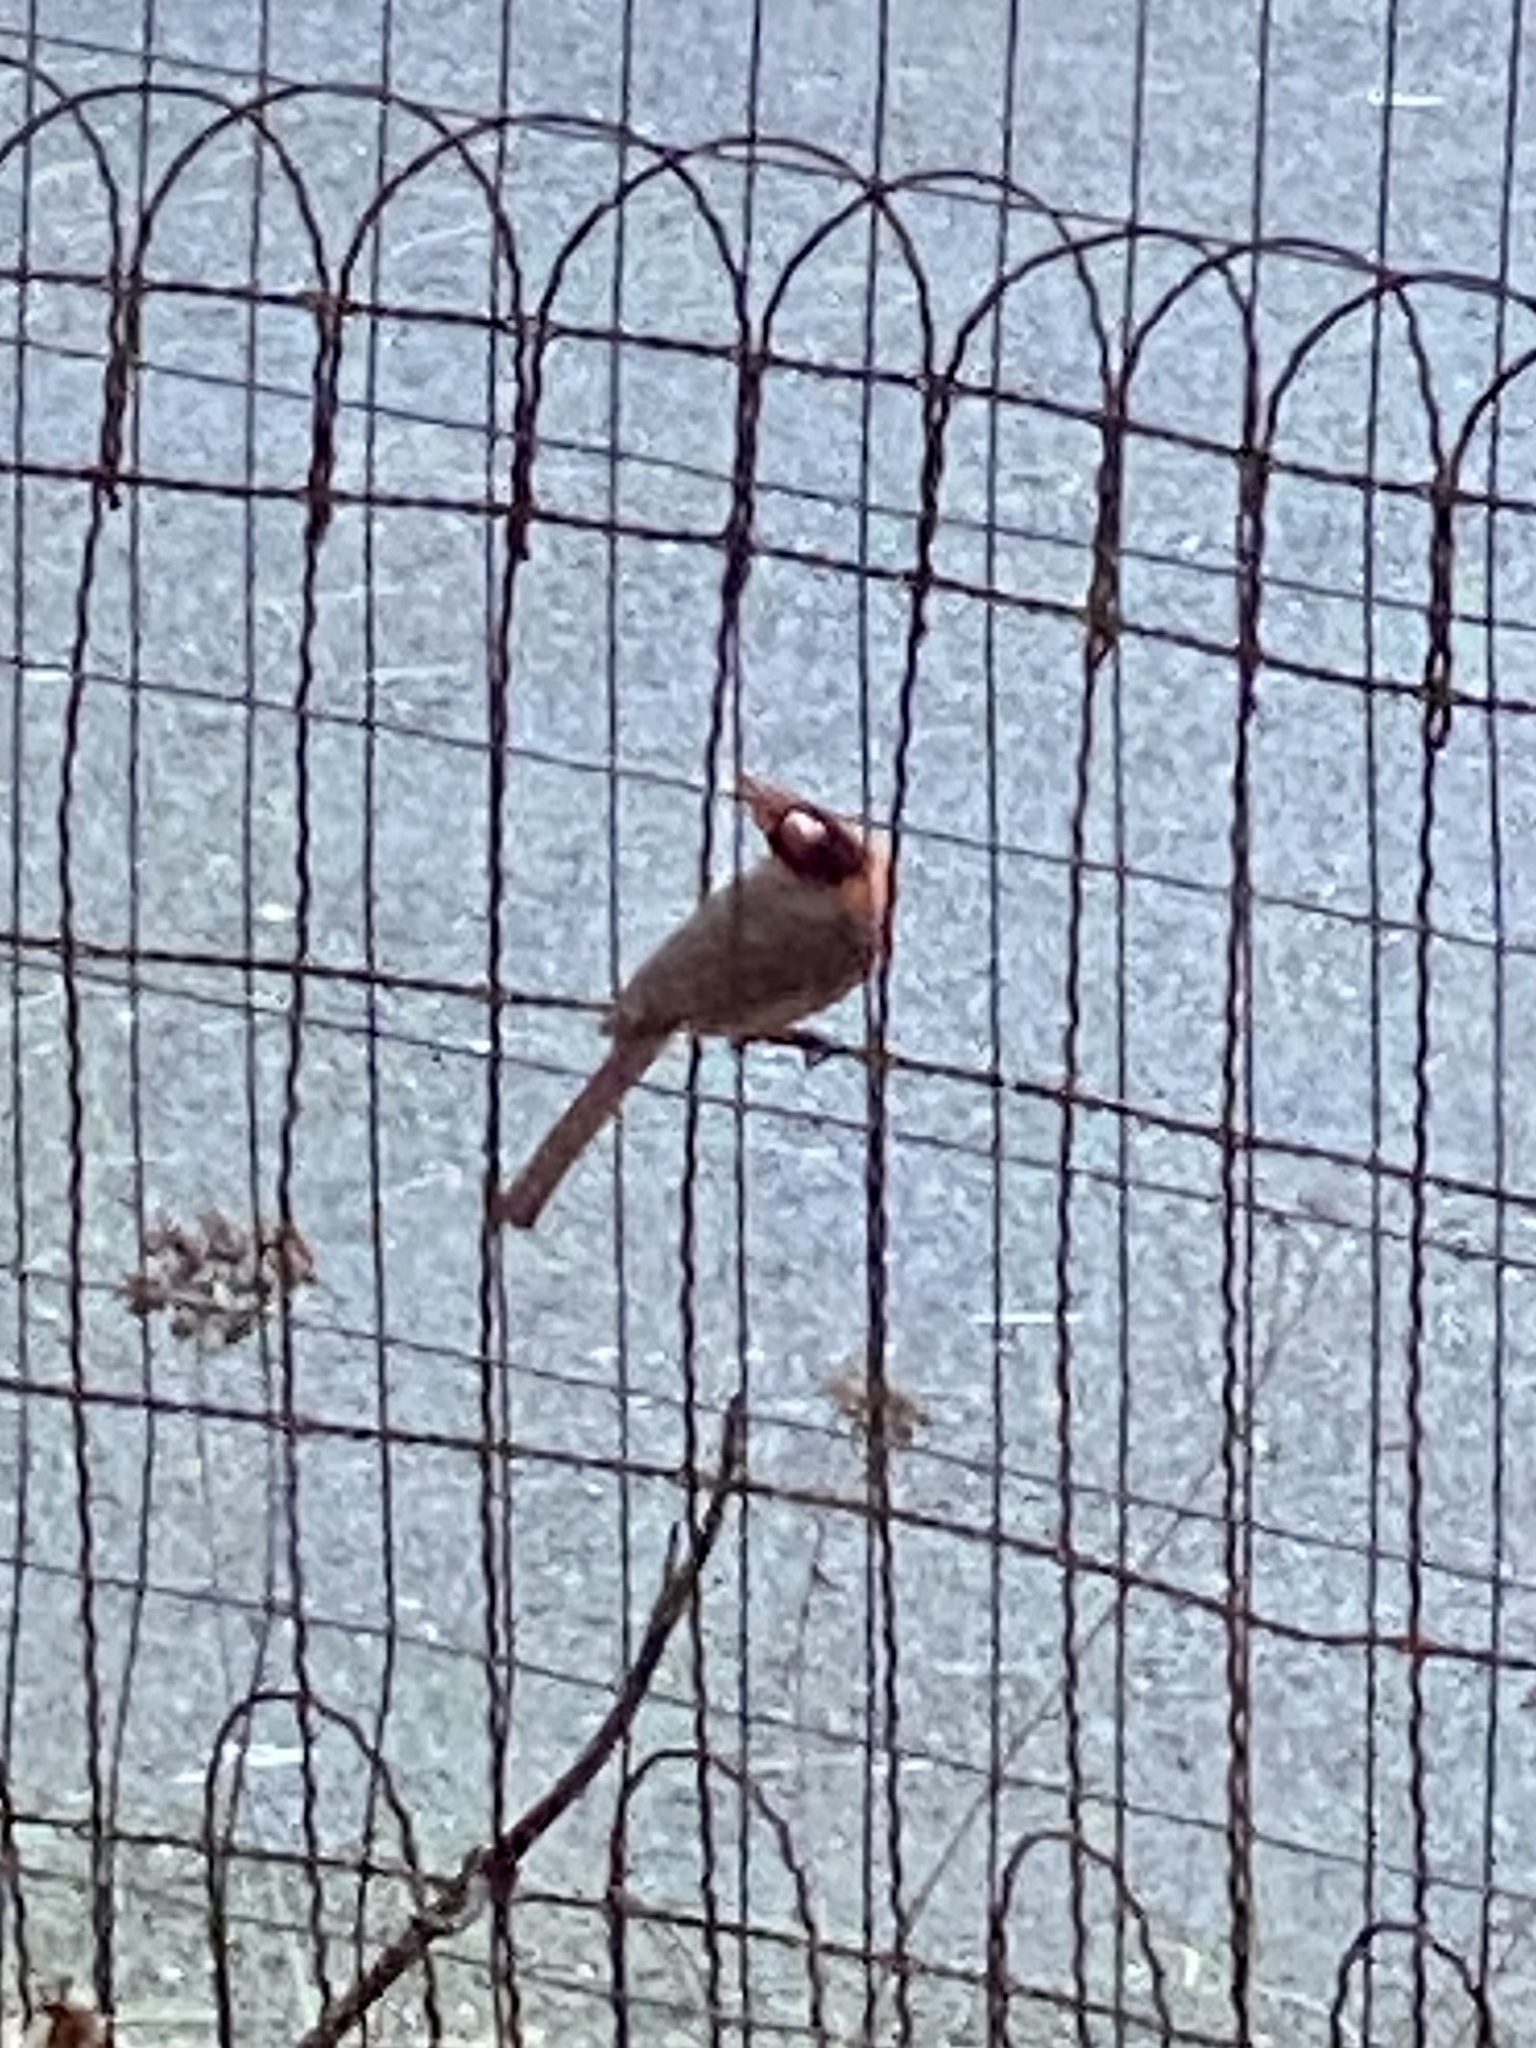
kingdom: Animalia
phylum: Chordata
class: Aves
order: Passeriformes
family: Cardinalidae
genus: Cardinalis
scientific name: Cardinalis cardinalis
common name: Northern cardinal
